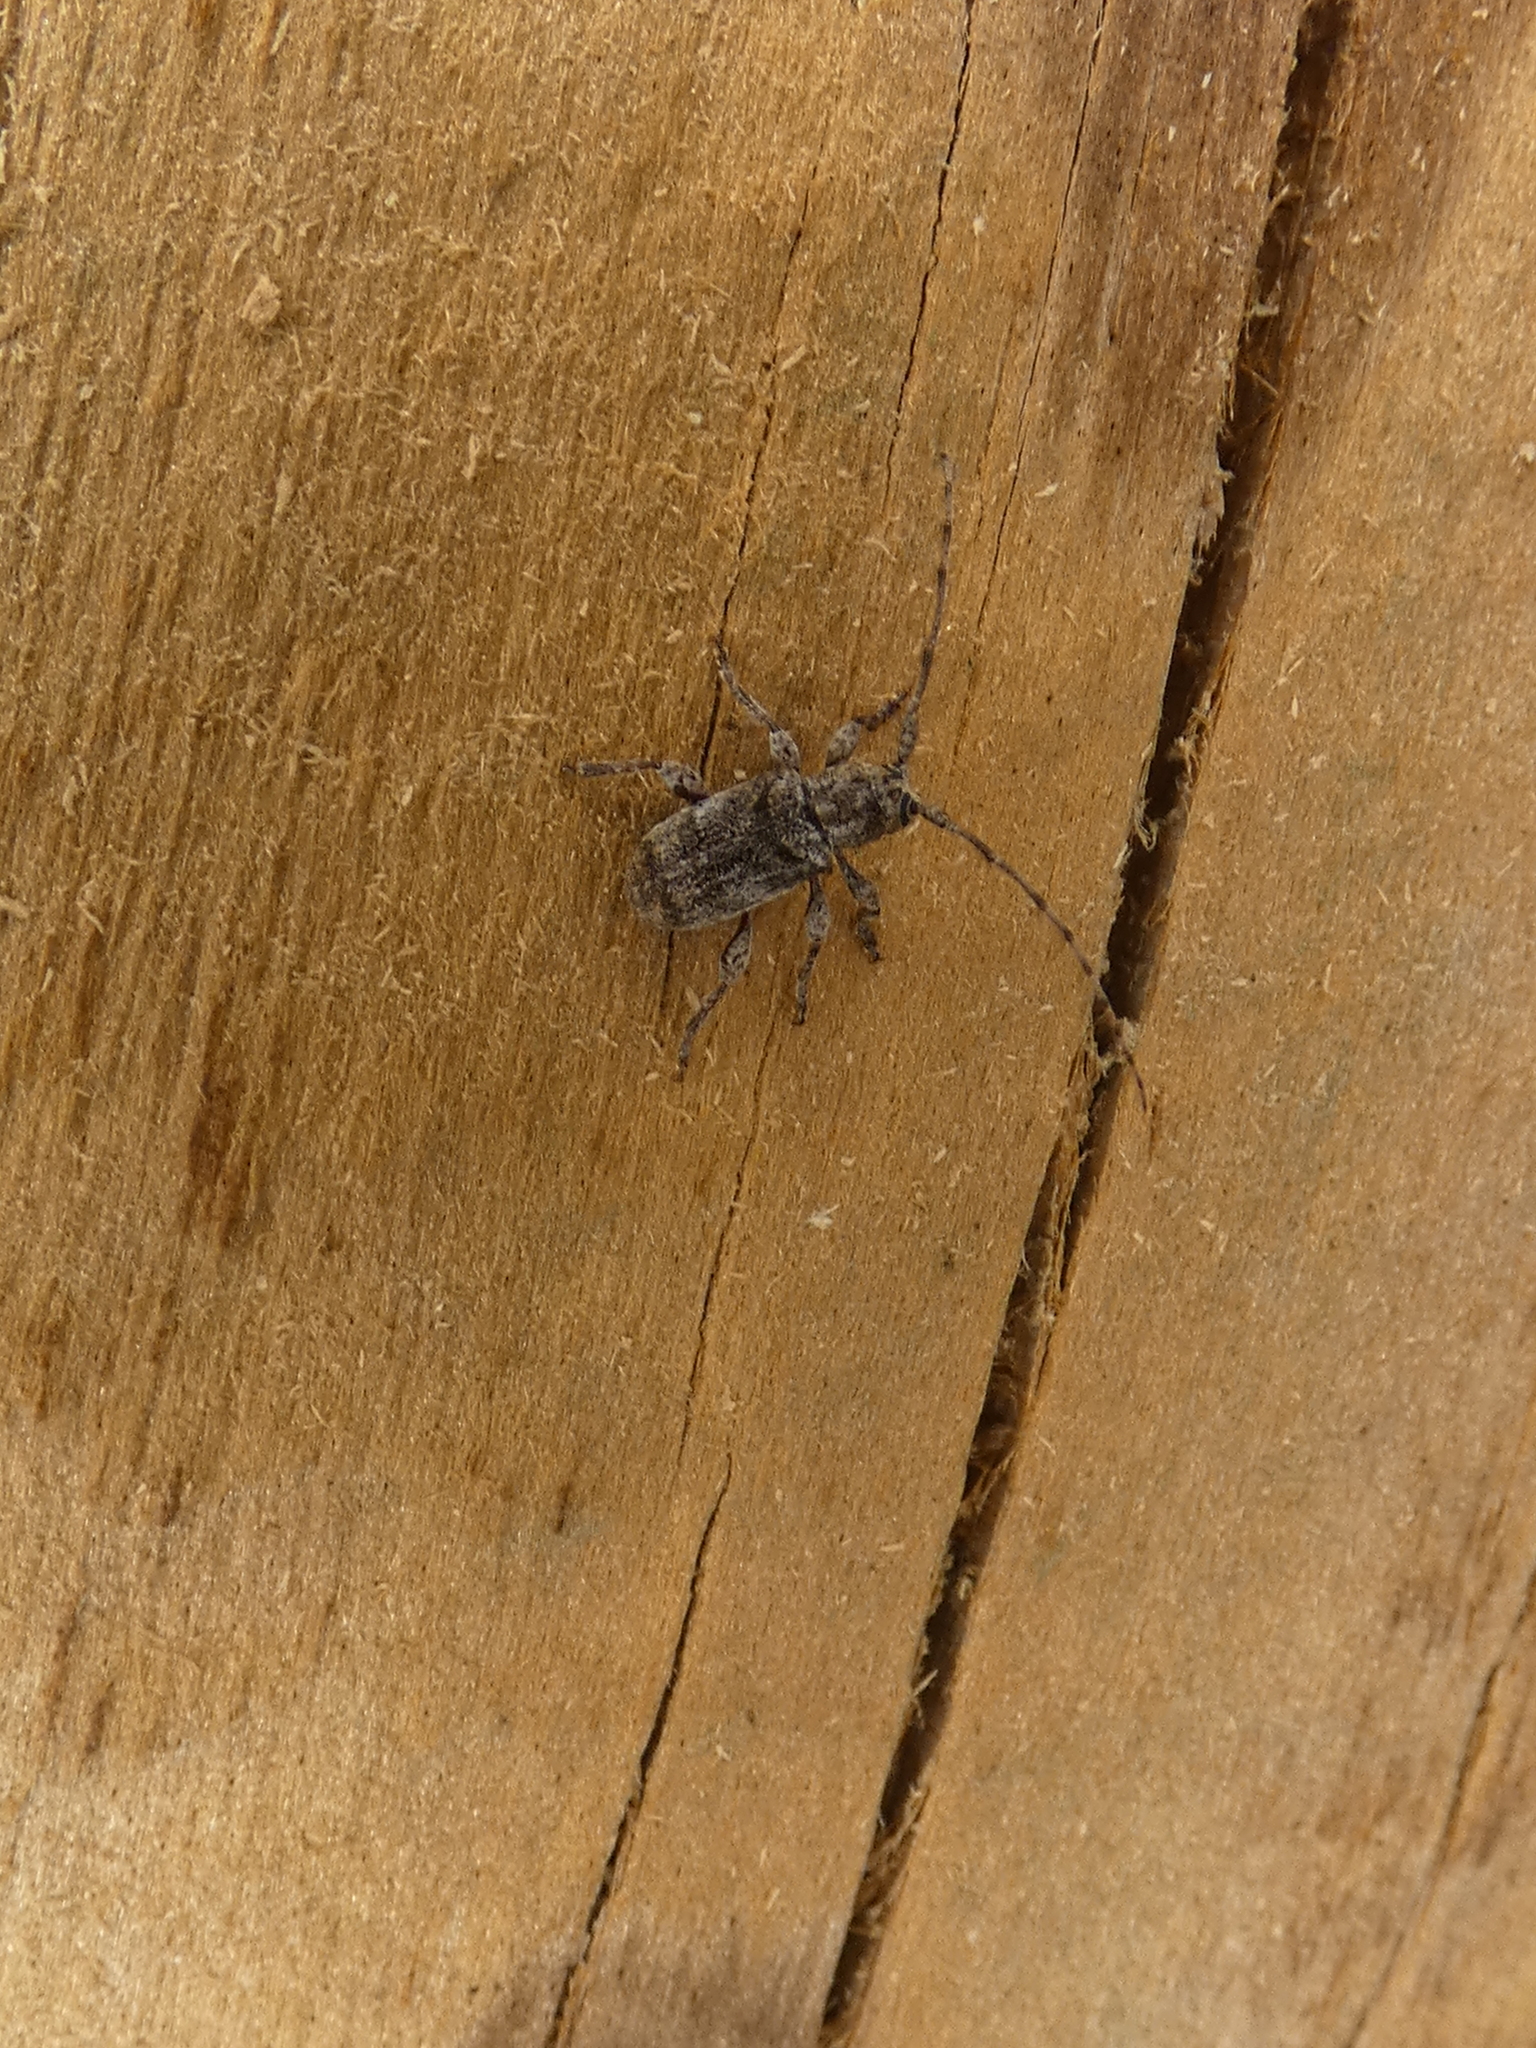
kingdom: Animalia
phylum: Arthropoda
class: Insecta
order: Coleoptera
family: Cerambycidae
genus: Ecyrus
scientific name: Ecyrus dasycerus
